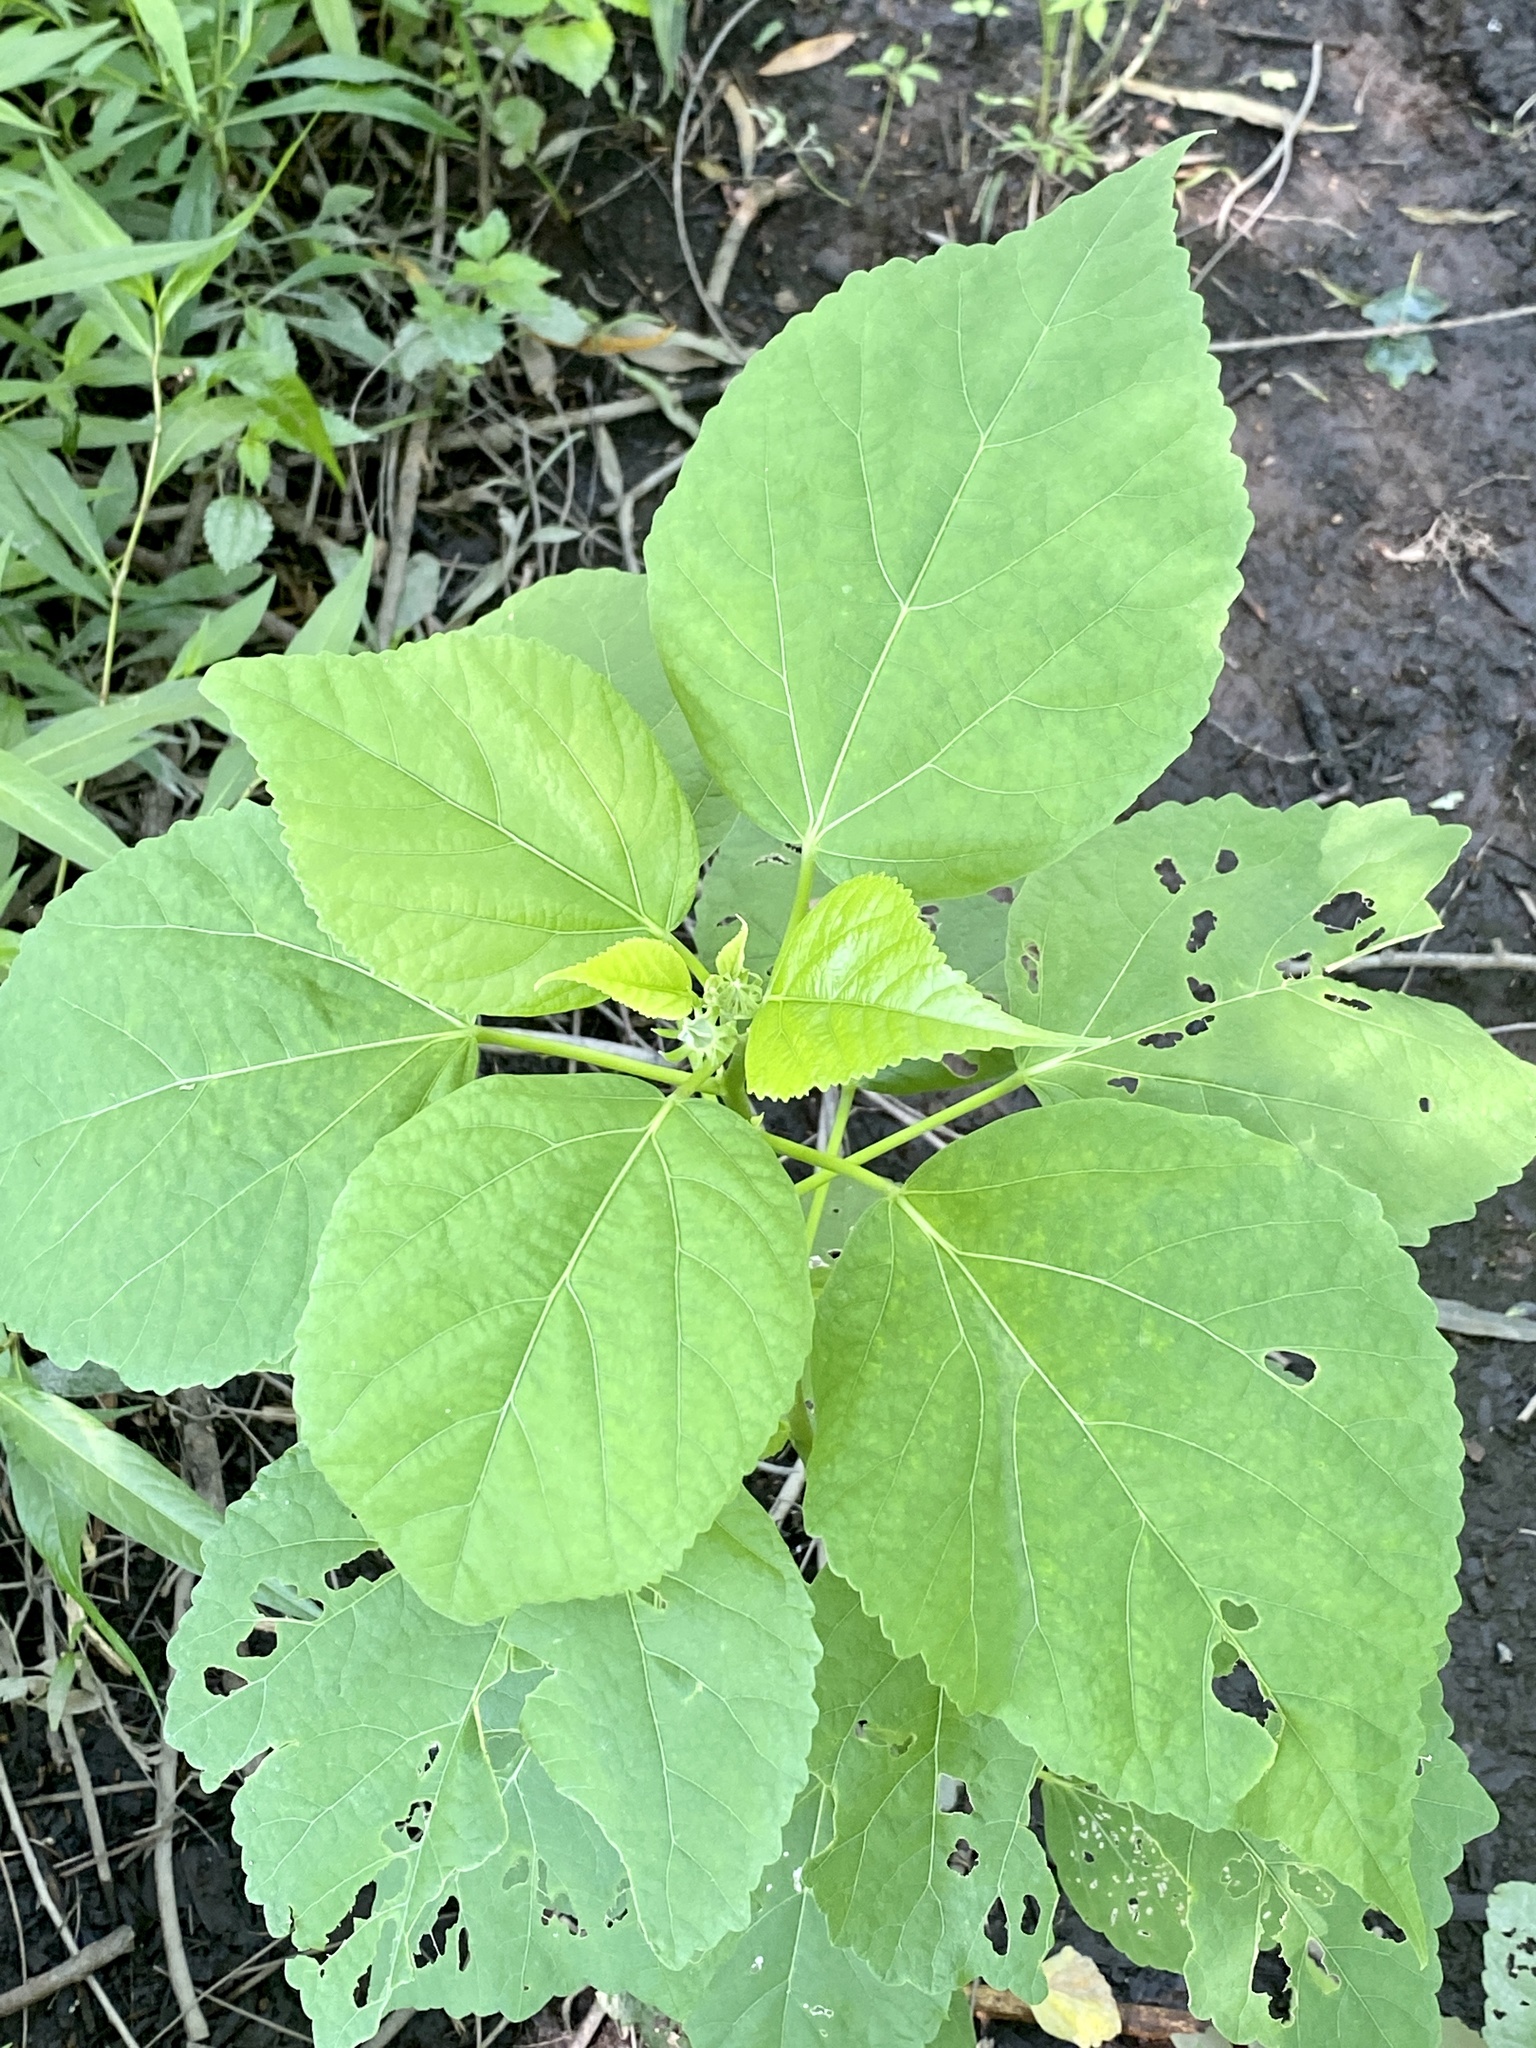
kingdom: Plantae
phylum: Tracheophyta
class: Magnoliopsida
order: Malvales
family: Malvaceae
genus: Hibiscus
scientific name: Hibiscus moscheutos
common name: Common rose-mallow
